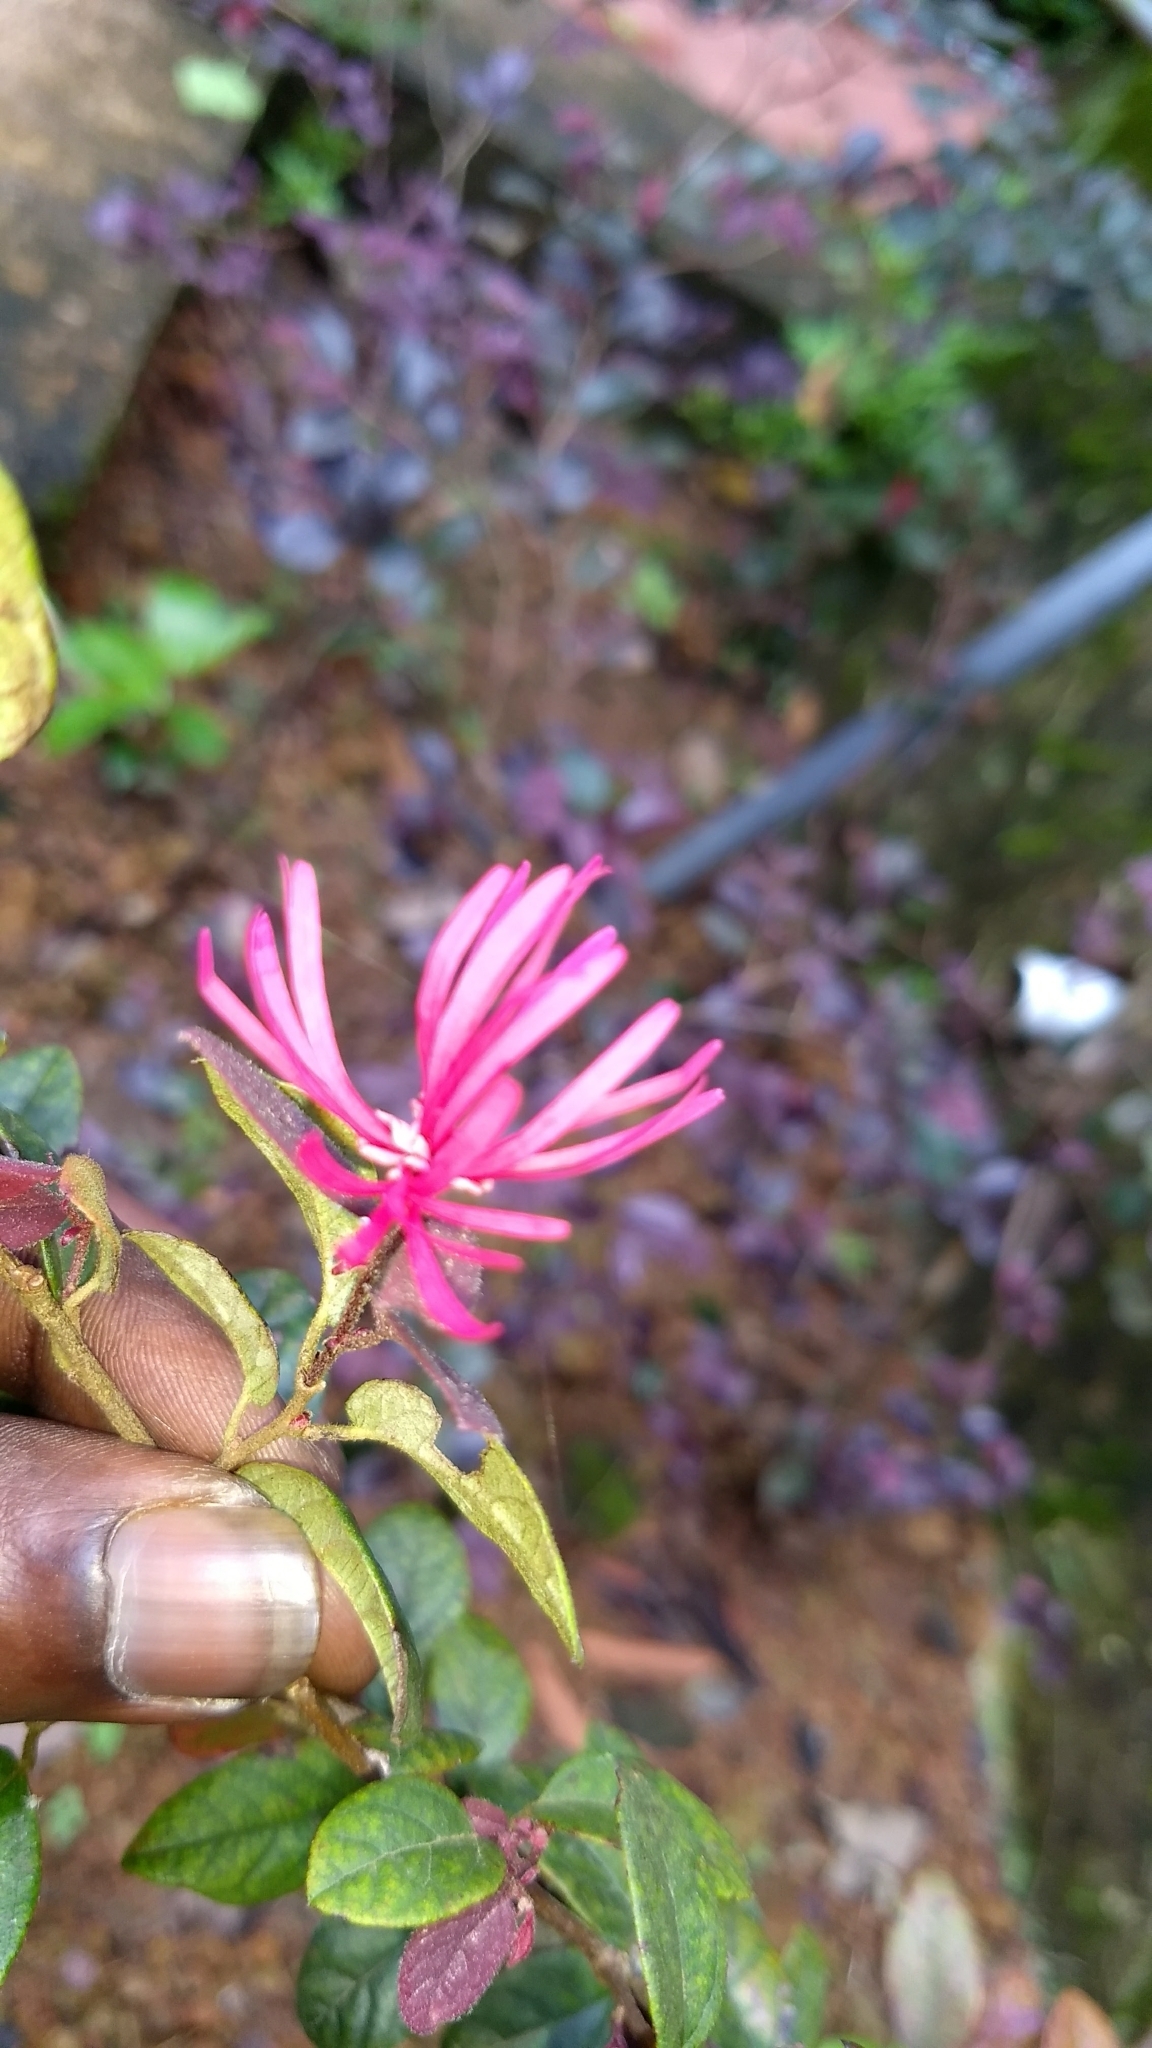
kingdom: Plantae
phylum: Tracheophyta
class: Magnoliopsida
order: Saxifragales
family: Hamamelidaceae
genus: Loropetalum
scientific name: Loropetalum chinense
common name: Chinese fringe flower
